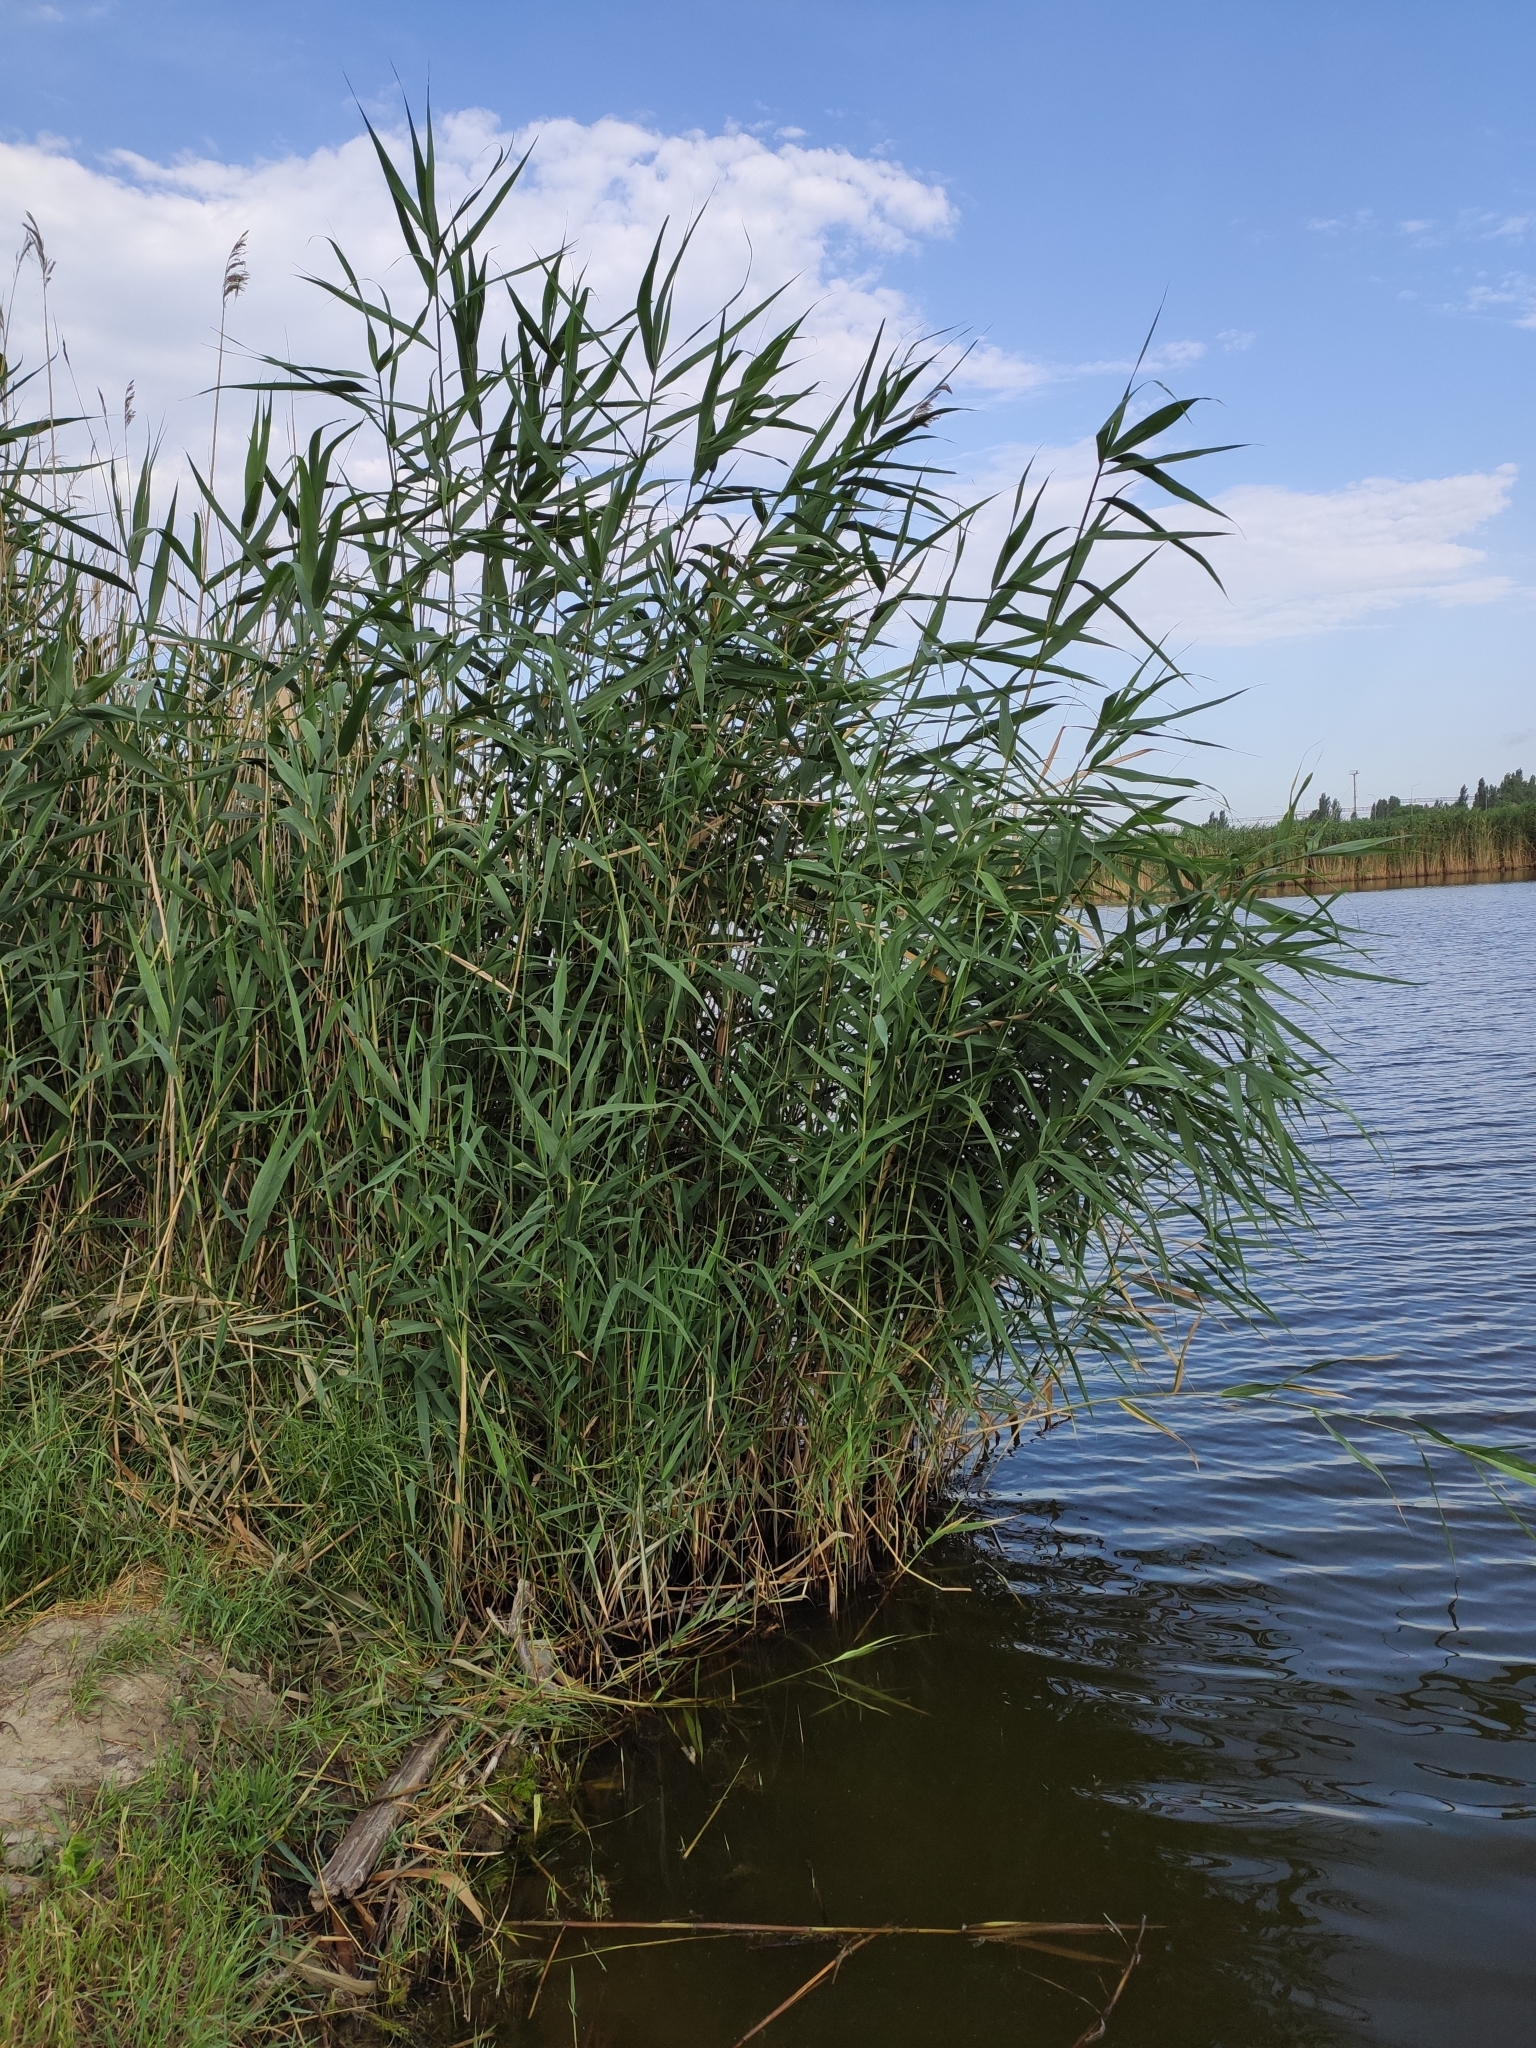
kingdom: Plantae
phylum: Tracheophyta
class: Liliopsida
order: Poales
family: Poaceae
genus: Phragmites
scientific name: Phragmites australis
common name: Common reed
